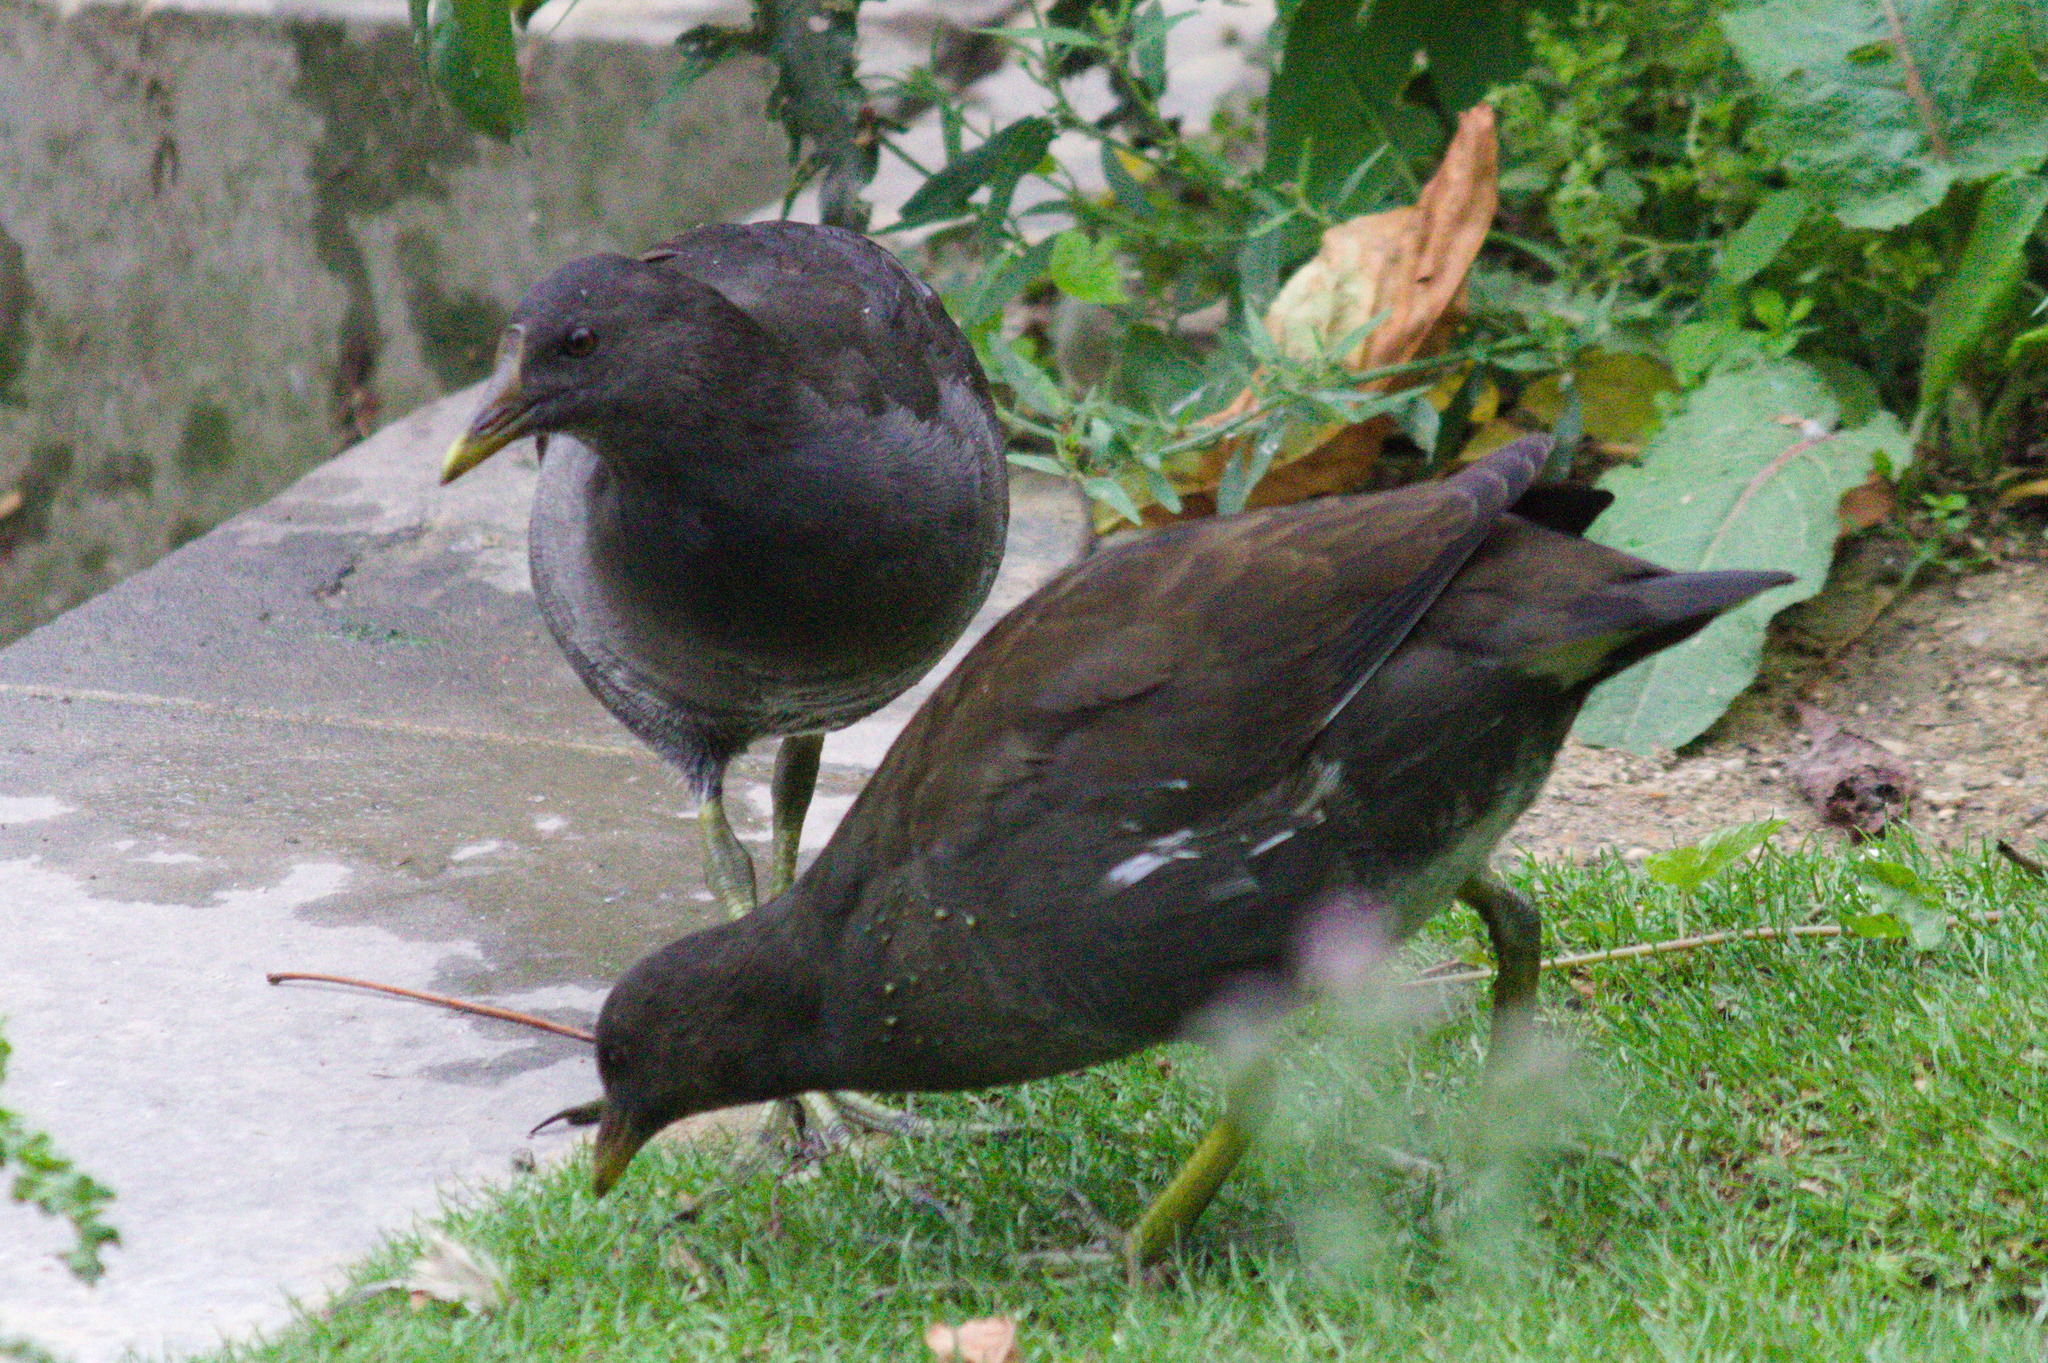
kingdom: Animalia
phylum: Chordata
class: Aves
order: Gruiformes
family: Rallidae
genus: Gallinula
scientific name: Gallinula chloropus
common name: Common moorhen
